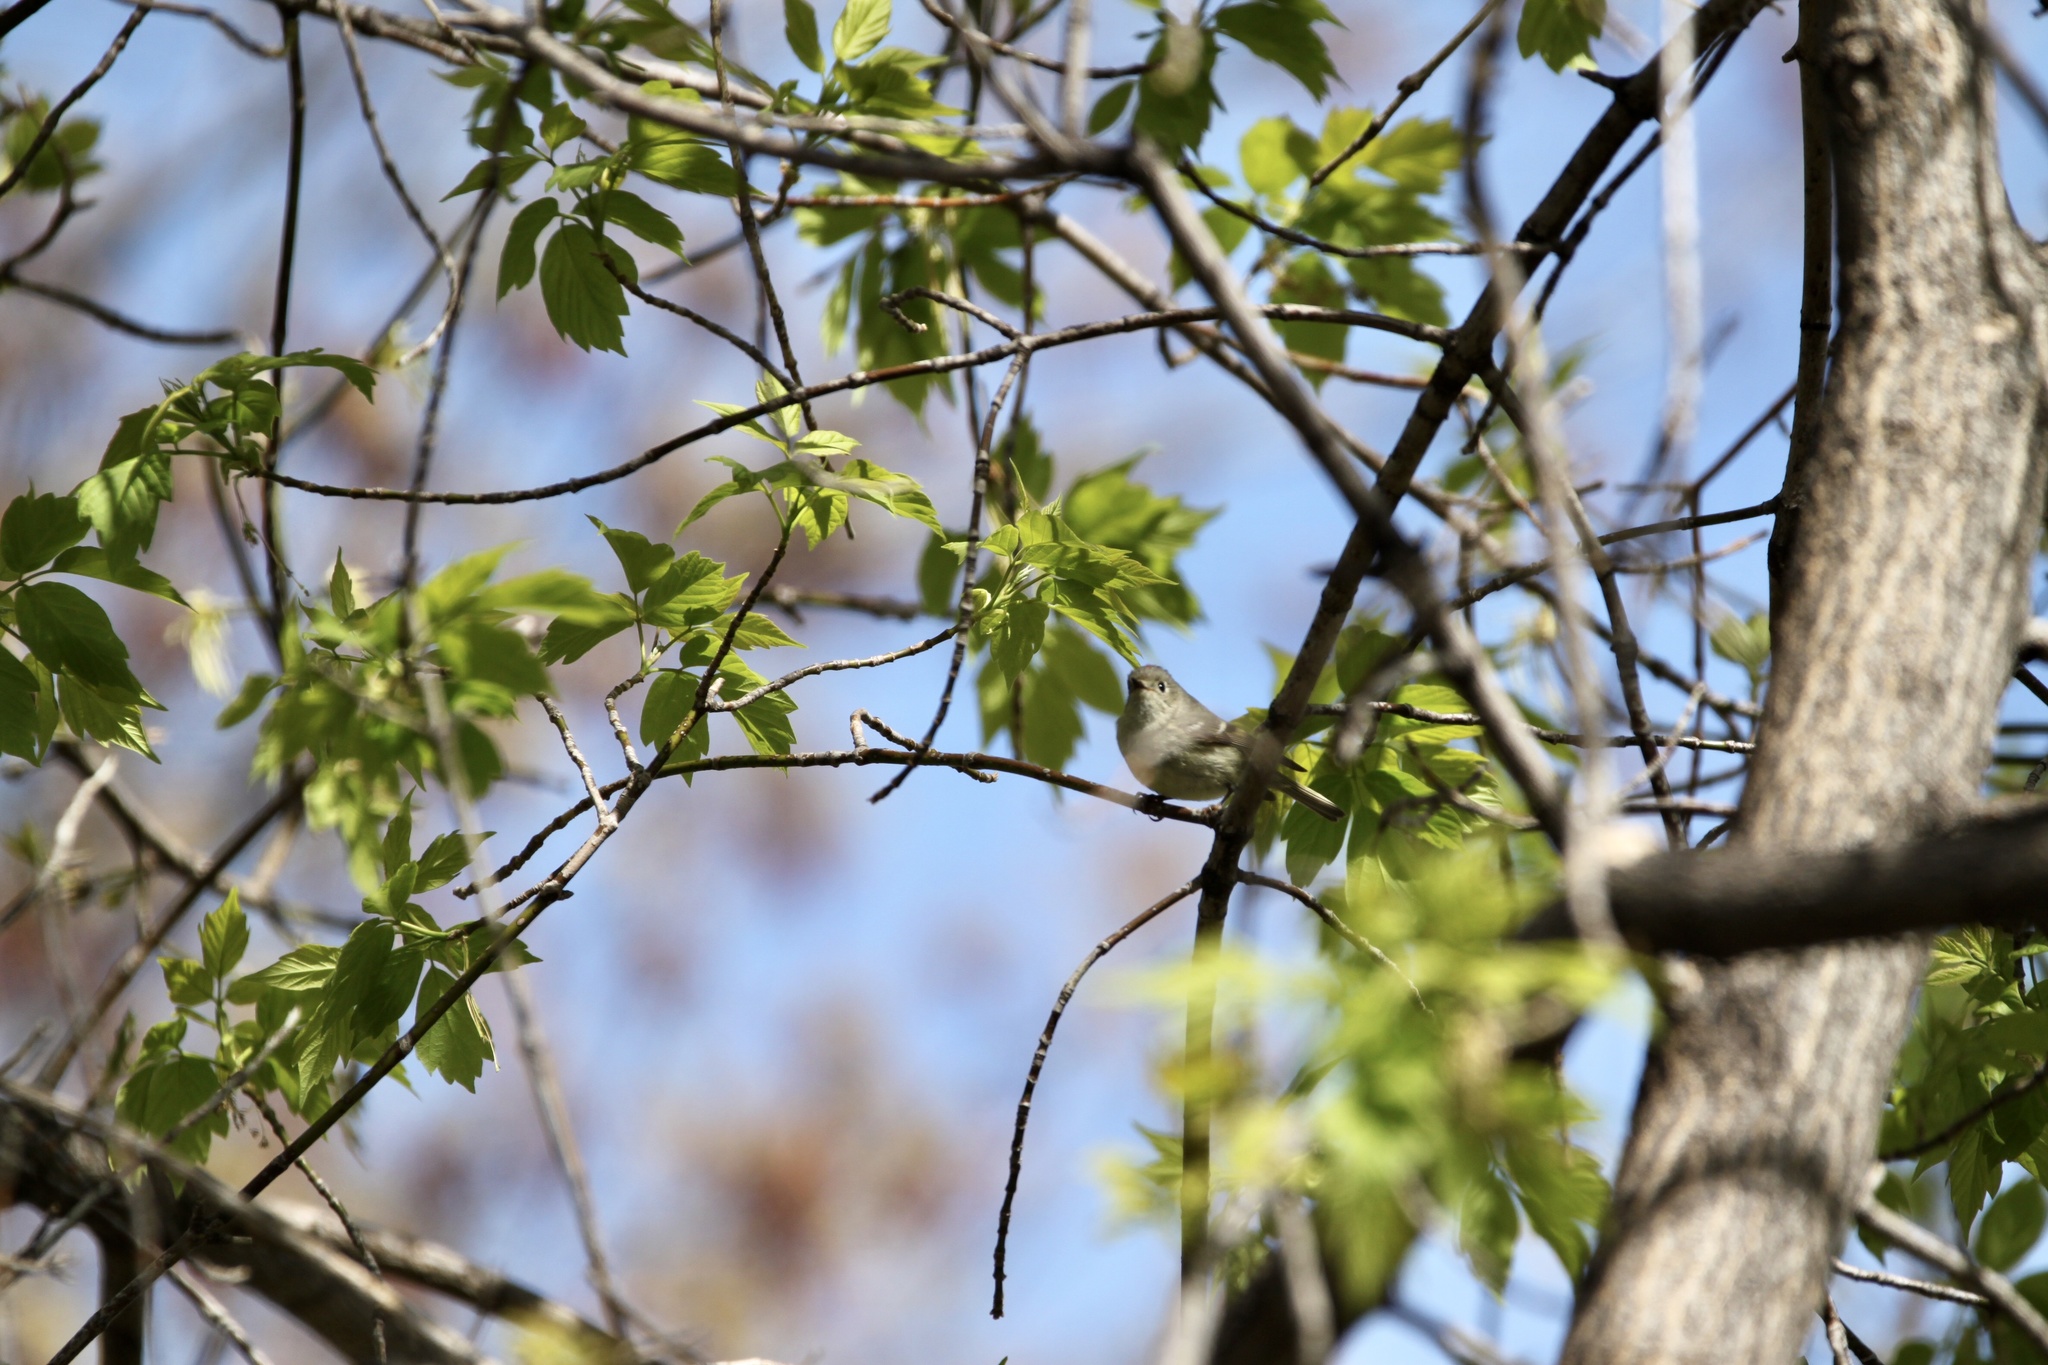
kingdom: Animalia
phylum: Chordata
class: Aves
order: Passeriformes
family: Regulidae
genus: Regulus
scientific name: Regulus calendula
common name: Ruby-crowned kinglet
